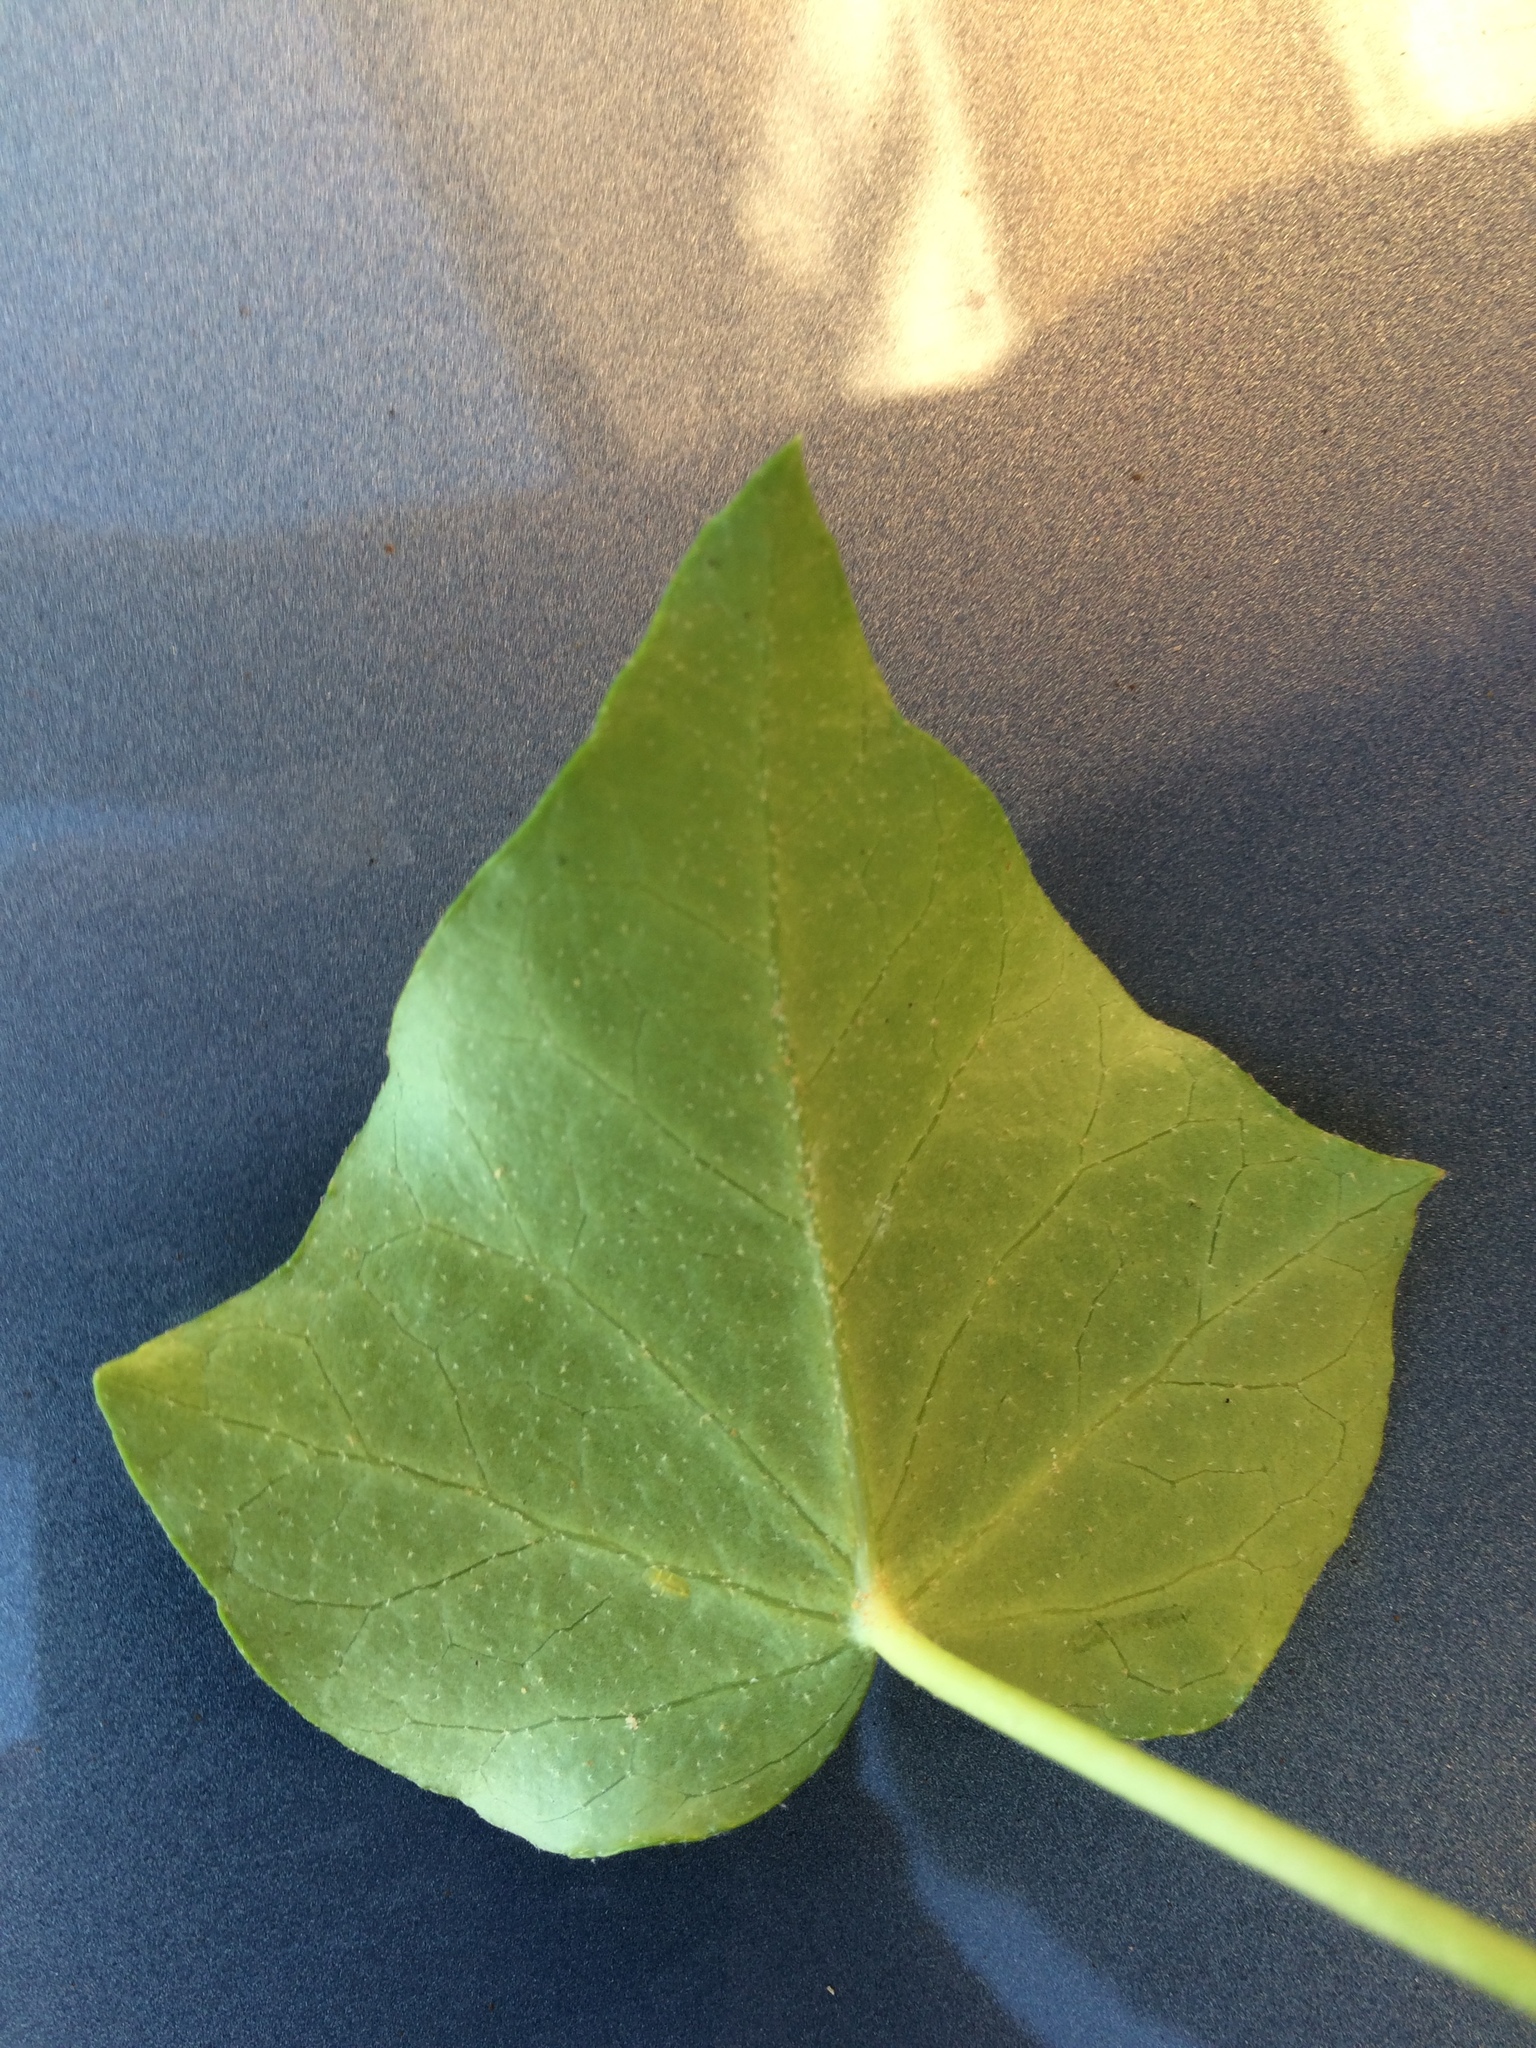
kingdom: Plantae
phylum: Tracheophyta
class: Magnoliopsida
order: Apiales
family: Araliaceae
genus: Hedera
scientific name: Hedera helix
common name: Ivy
